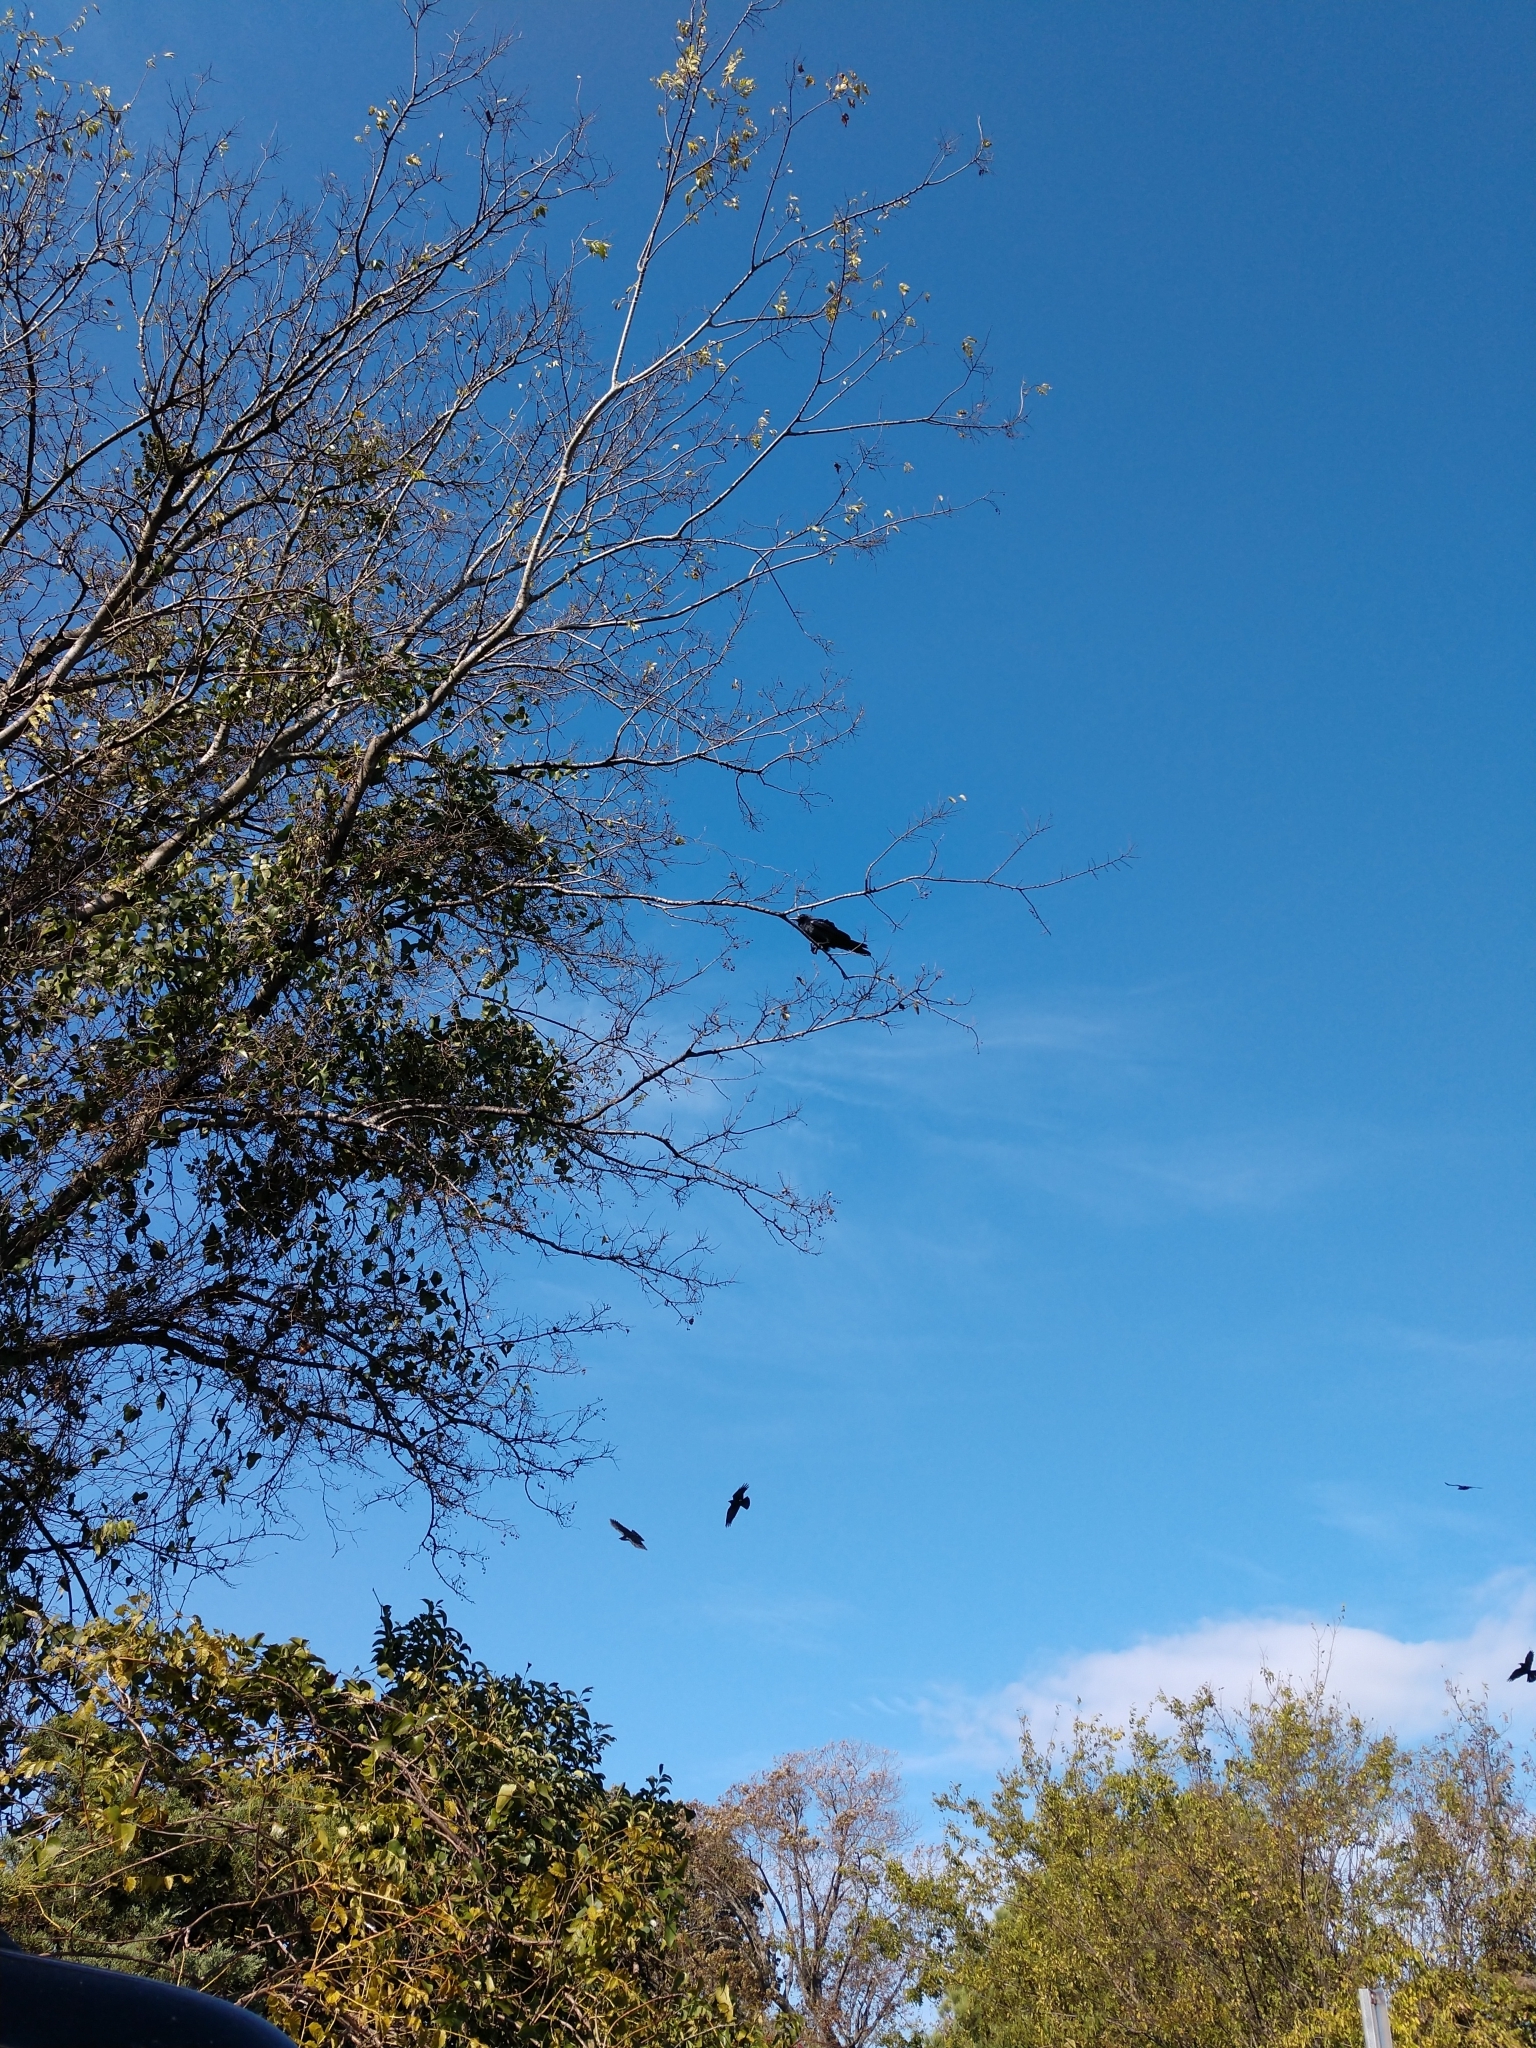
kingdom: Animalia
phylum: Chordata
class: Aves
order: Passeriformes
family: Corvidae
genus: Corvus
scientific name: Corvus
